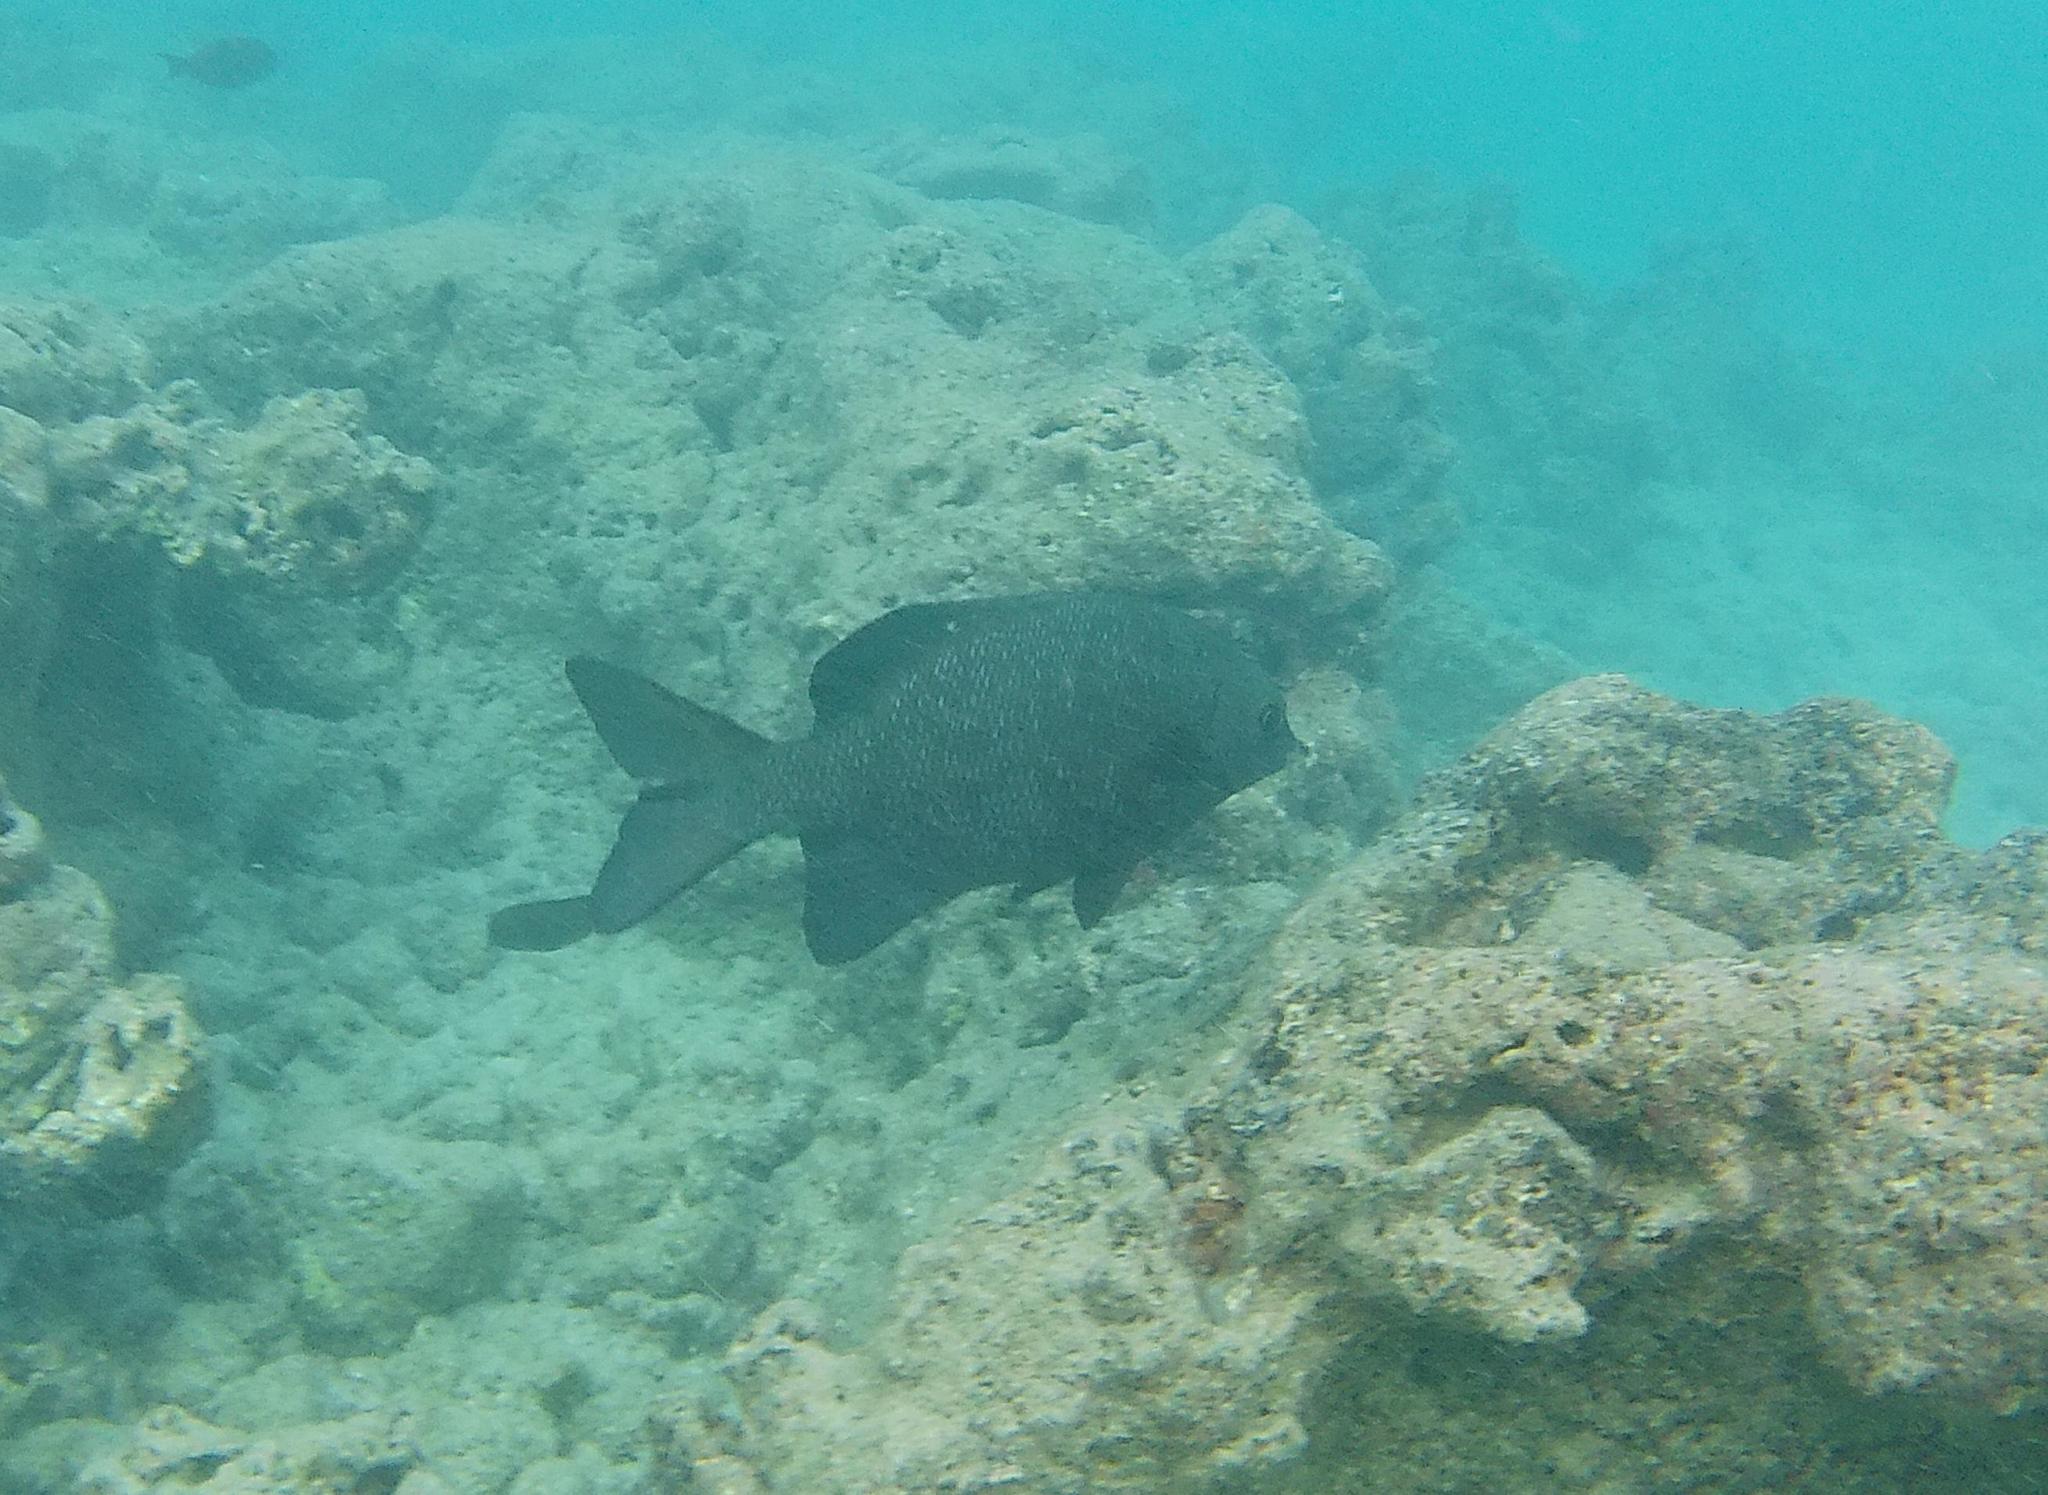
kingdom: Animalia
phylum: Chordata
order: Perciformes
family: Kyphosidae
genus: Kyphosus
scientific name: Kyphosus cinerascens
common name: Topsail drummer
